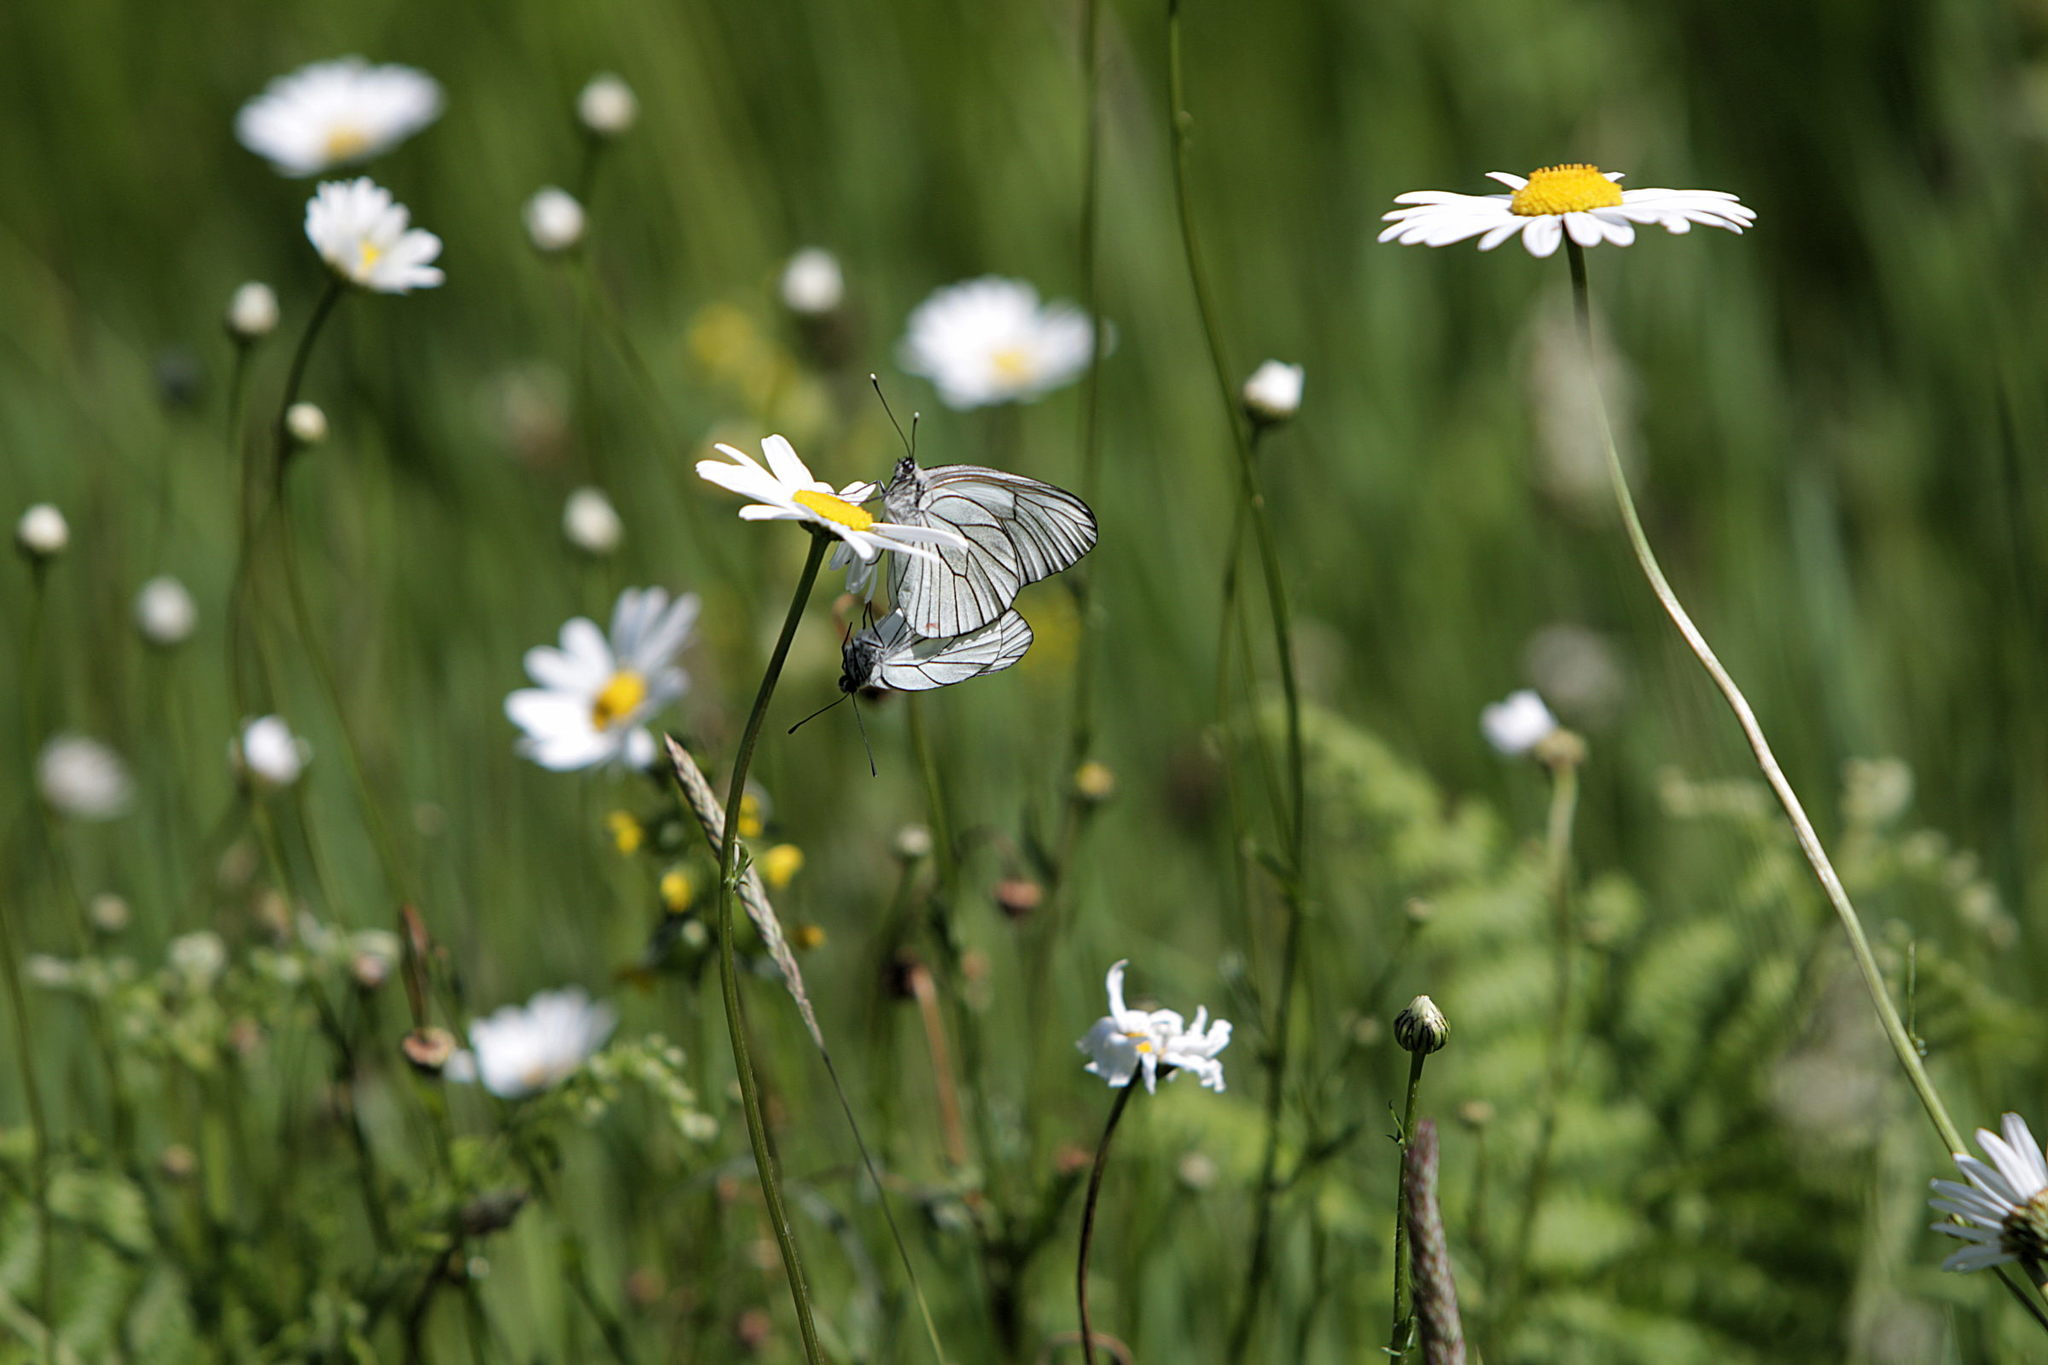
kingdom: Animalia
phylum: Arthropoda
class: Insecta
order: Lepidoptera
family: Pieridae
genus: Aporia
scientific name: Aporia crataegi
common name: Black-veined white
